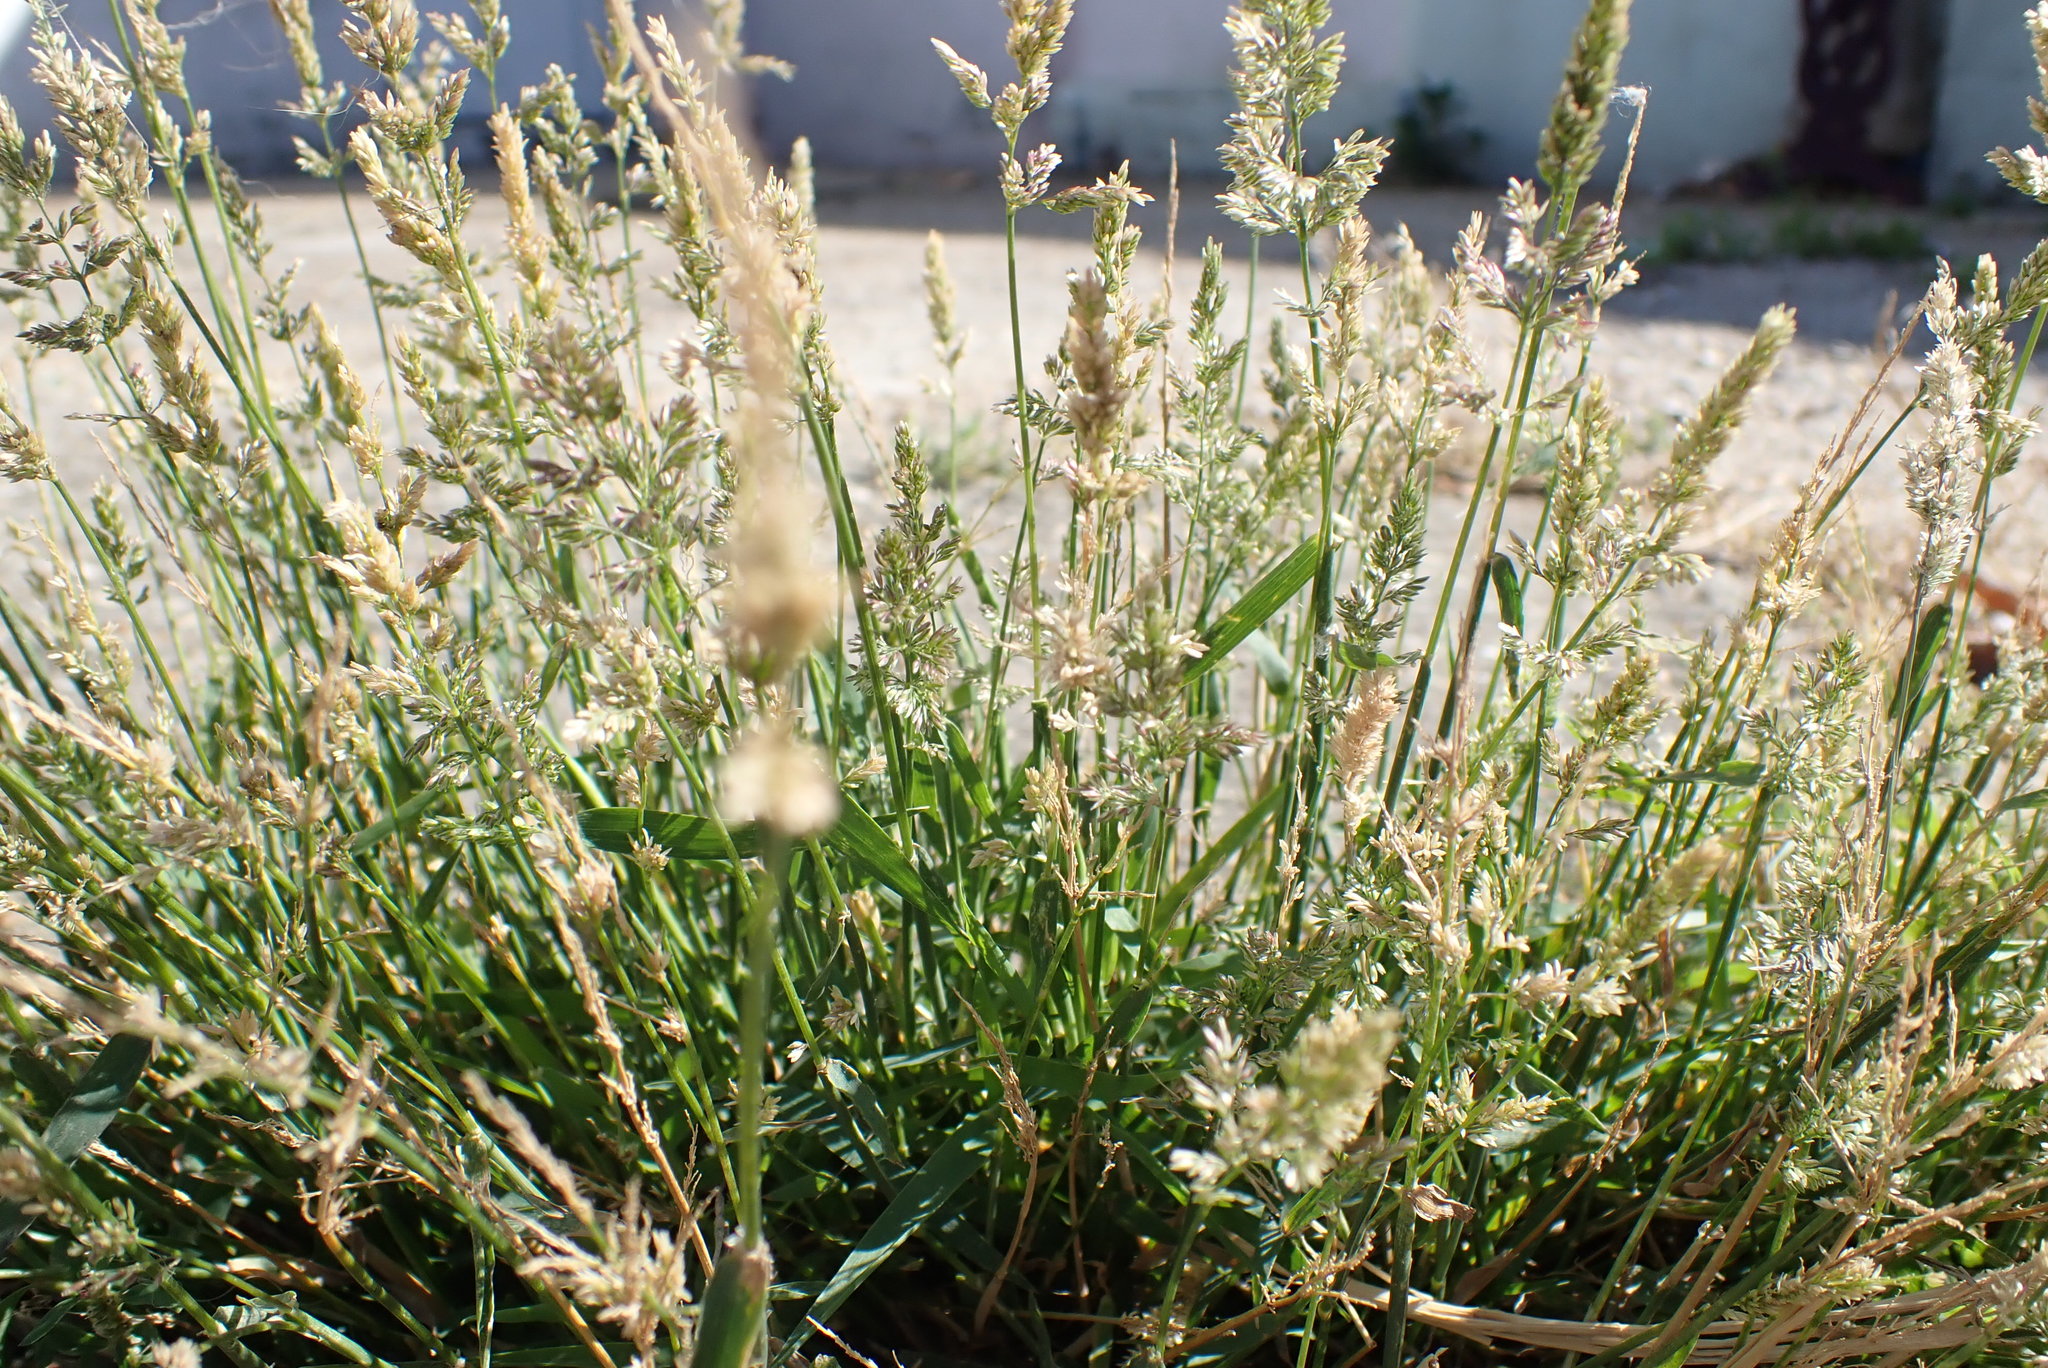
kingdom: Plantae
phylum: Tracheophyta
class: Liliopsida
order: Poales
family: Poaceae
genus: Polypogon
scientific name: Polypogon viridis
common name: Water bent
